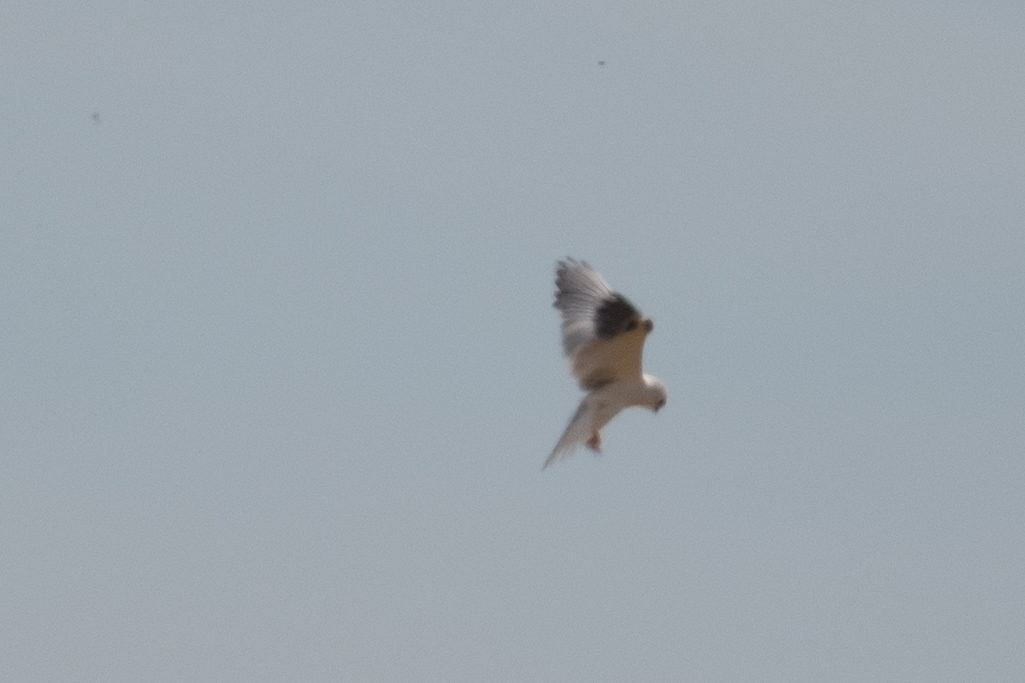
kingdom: Animalia
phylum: Chordata
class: Aves
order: Accipitriformes
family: Accipitridae
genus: Elanus
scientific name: Elanus leucurus
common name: White-tailed kite
